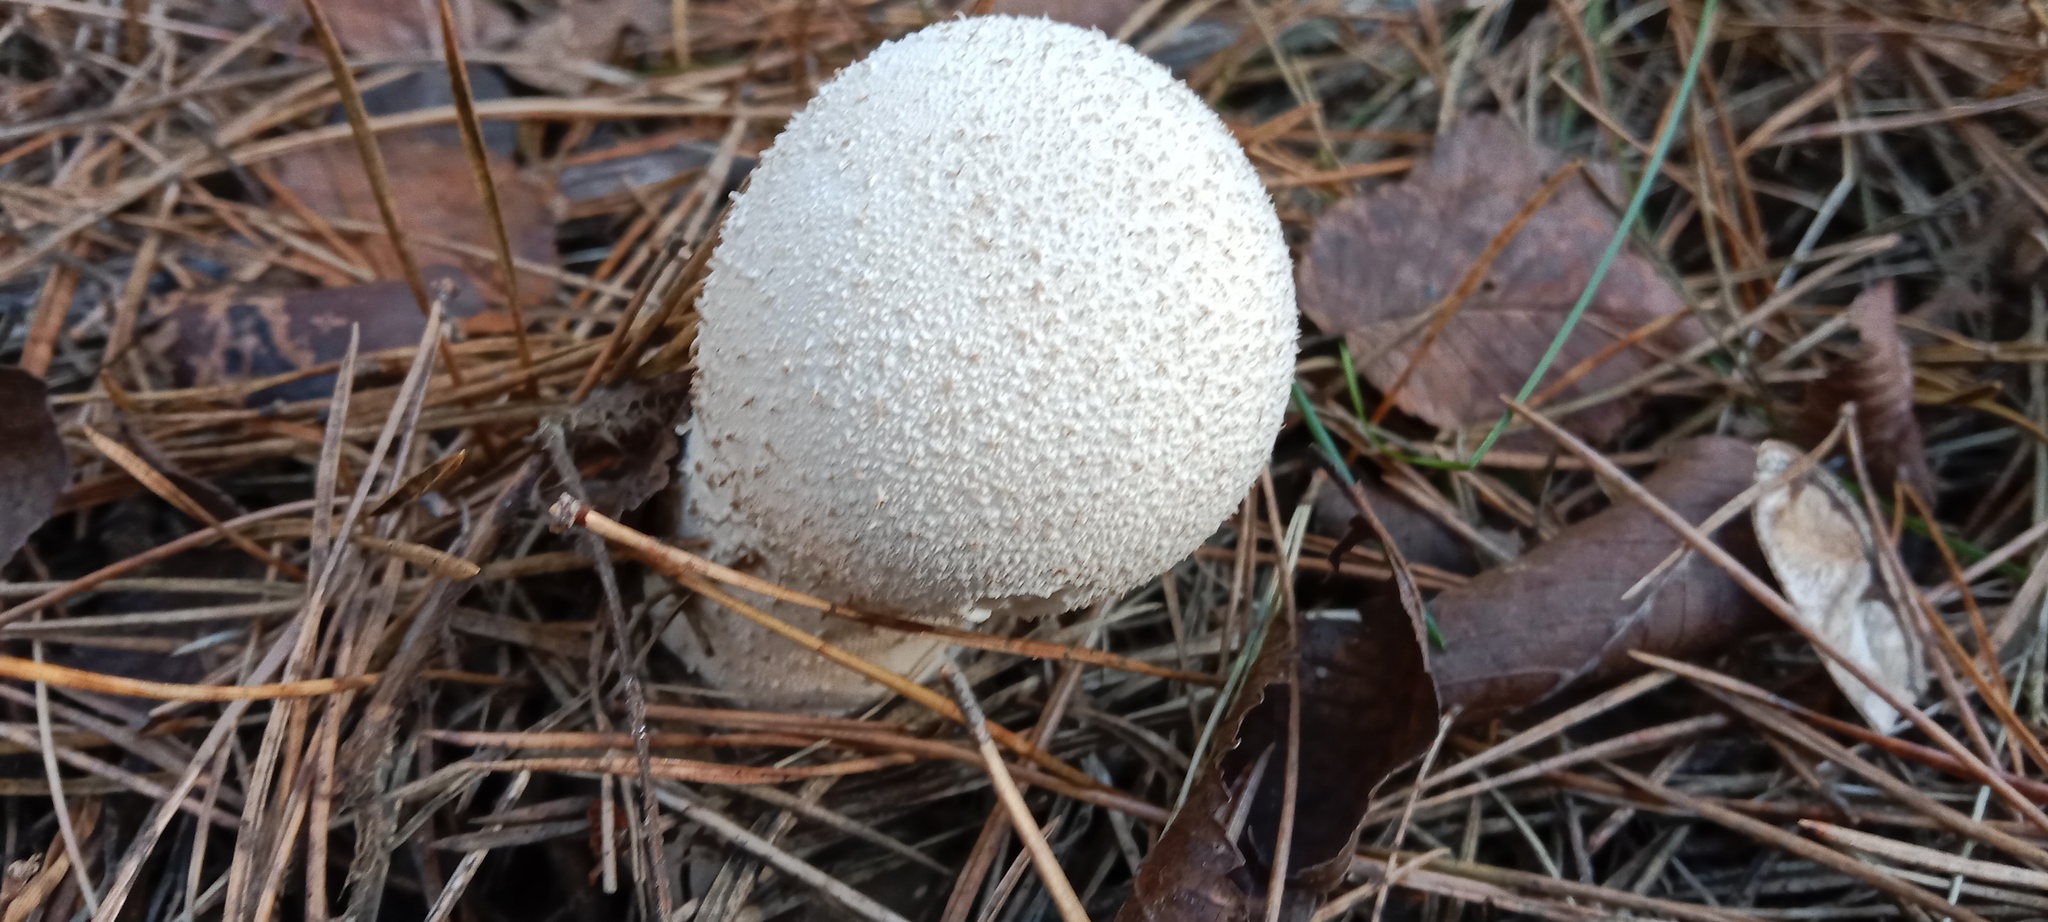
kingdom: Fungi
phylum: Basidiomycota
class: Agaricomycetes
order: Agaricales
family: Lycoperdaceae
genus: Lycoperdon
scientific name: Lycoperdon excipuliforme
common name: Pestle puffball
